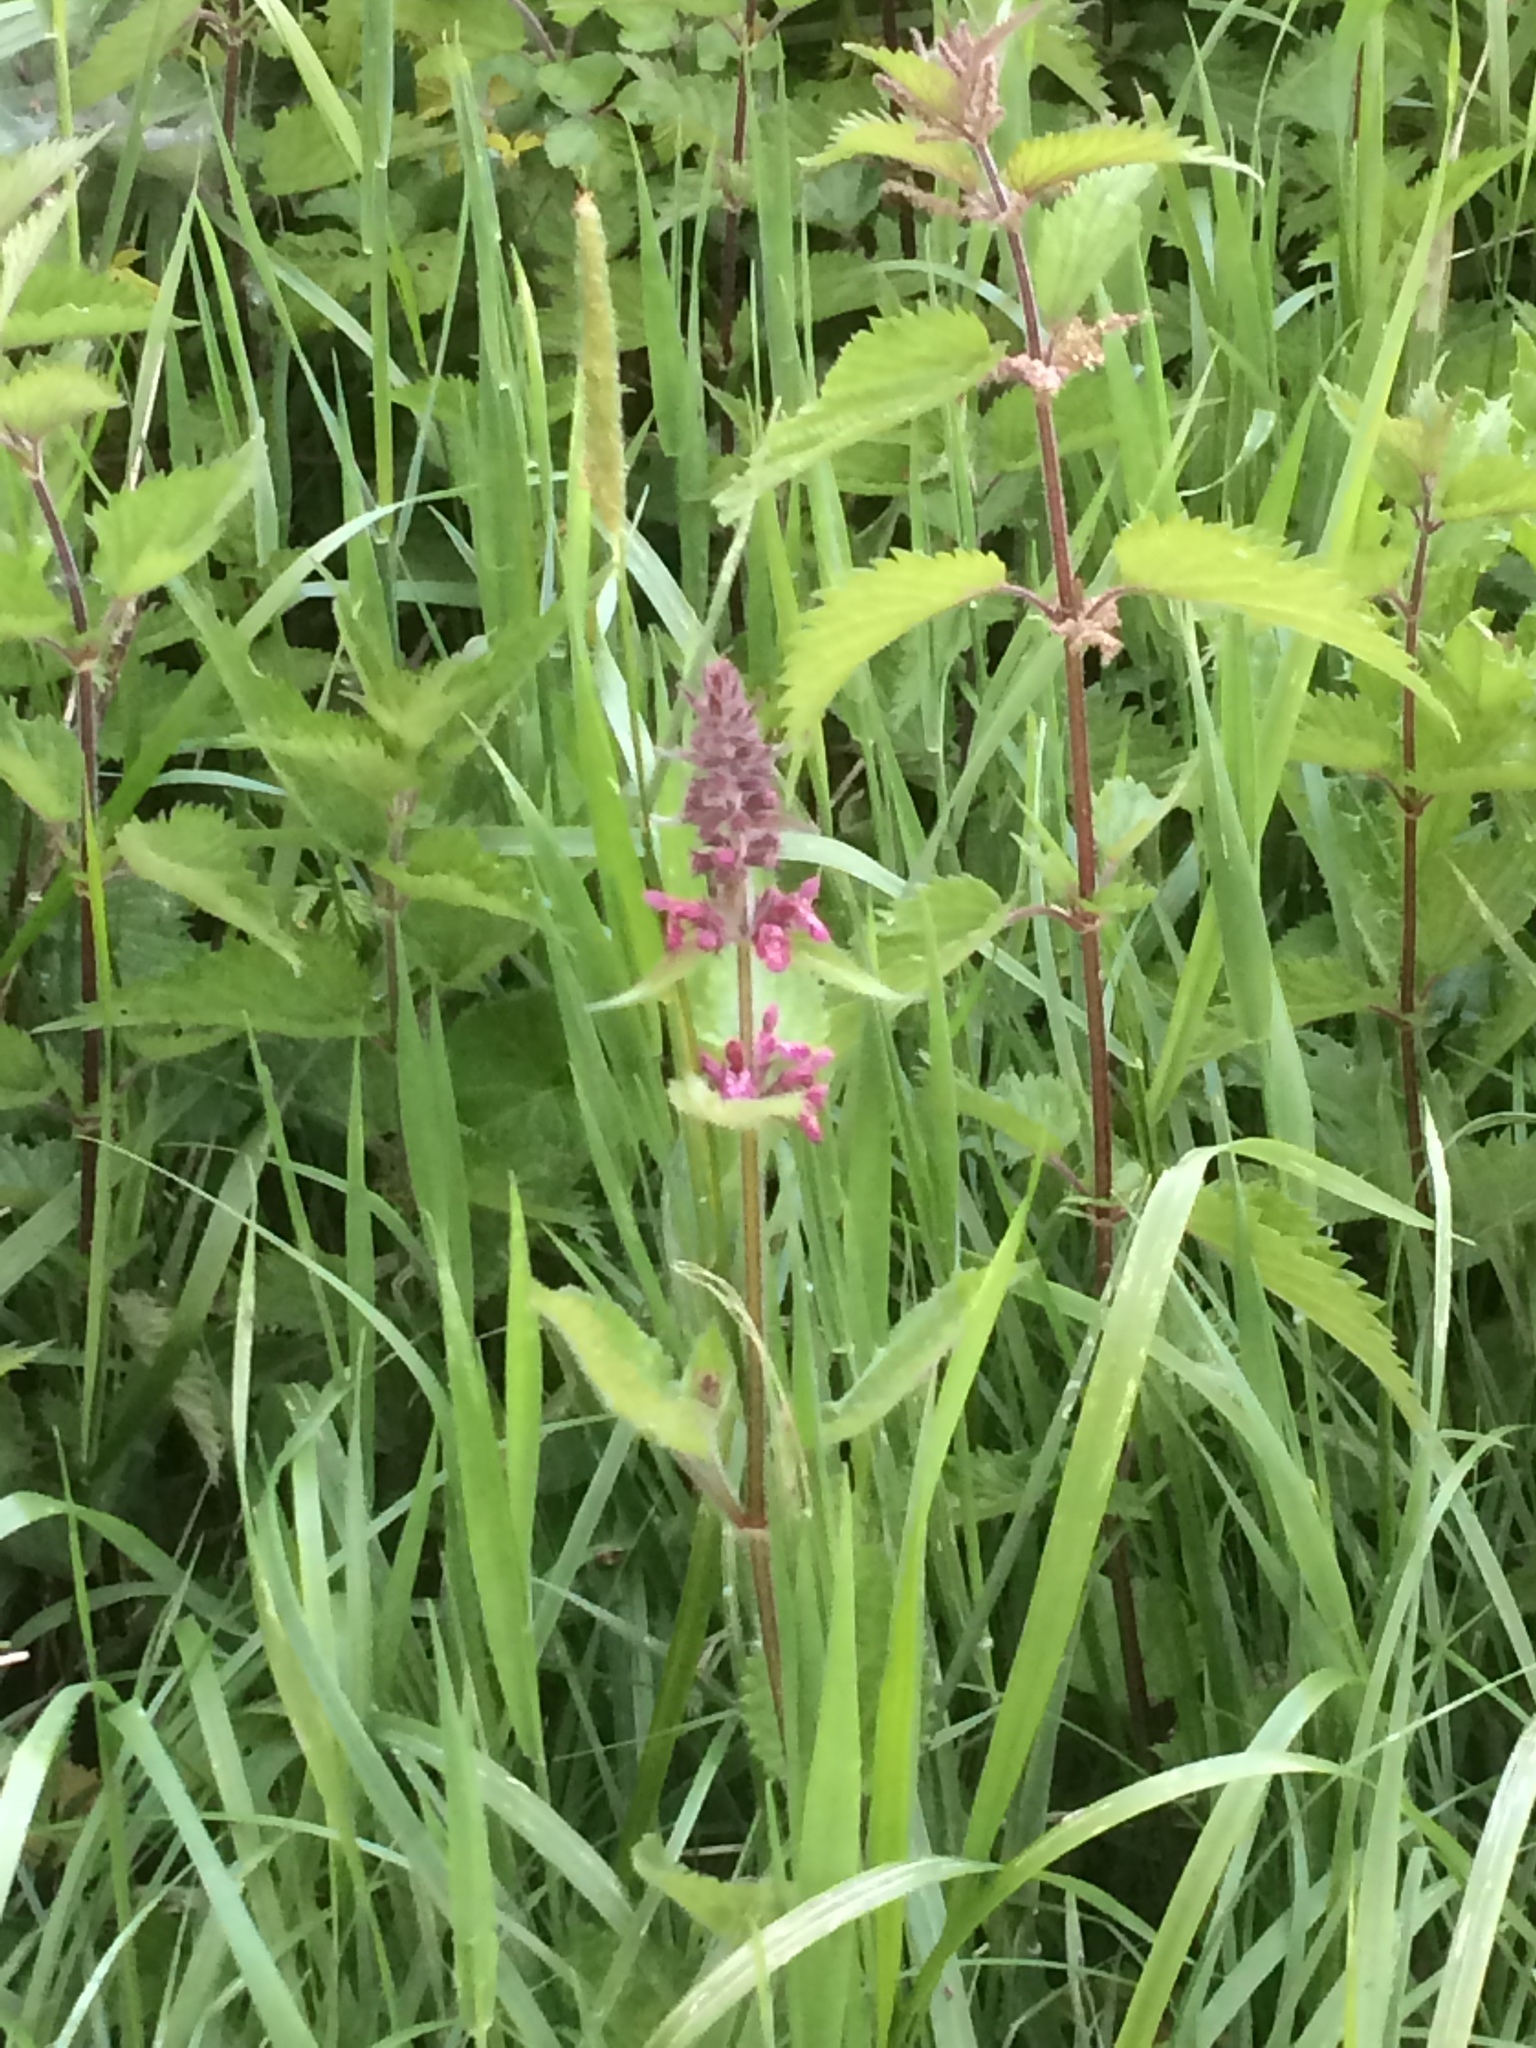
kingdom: Plantae
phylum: Tracheophyta
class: Magnoliopsida
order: Lamiales
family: Lamiaceae
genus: Stachys
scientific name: Stachys sylvatica
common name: Hedge woundwort
